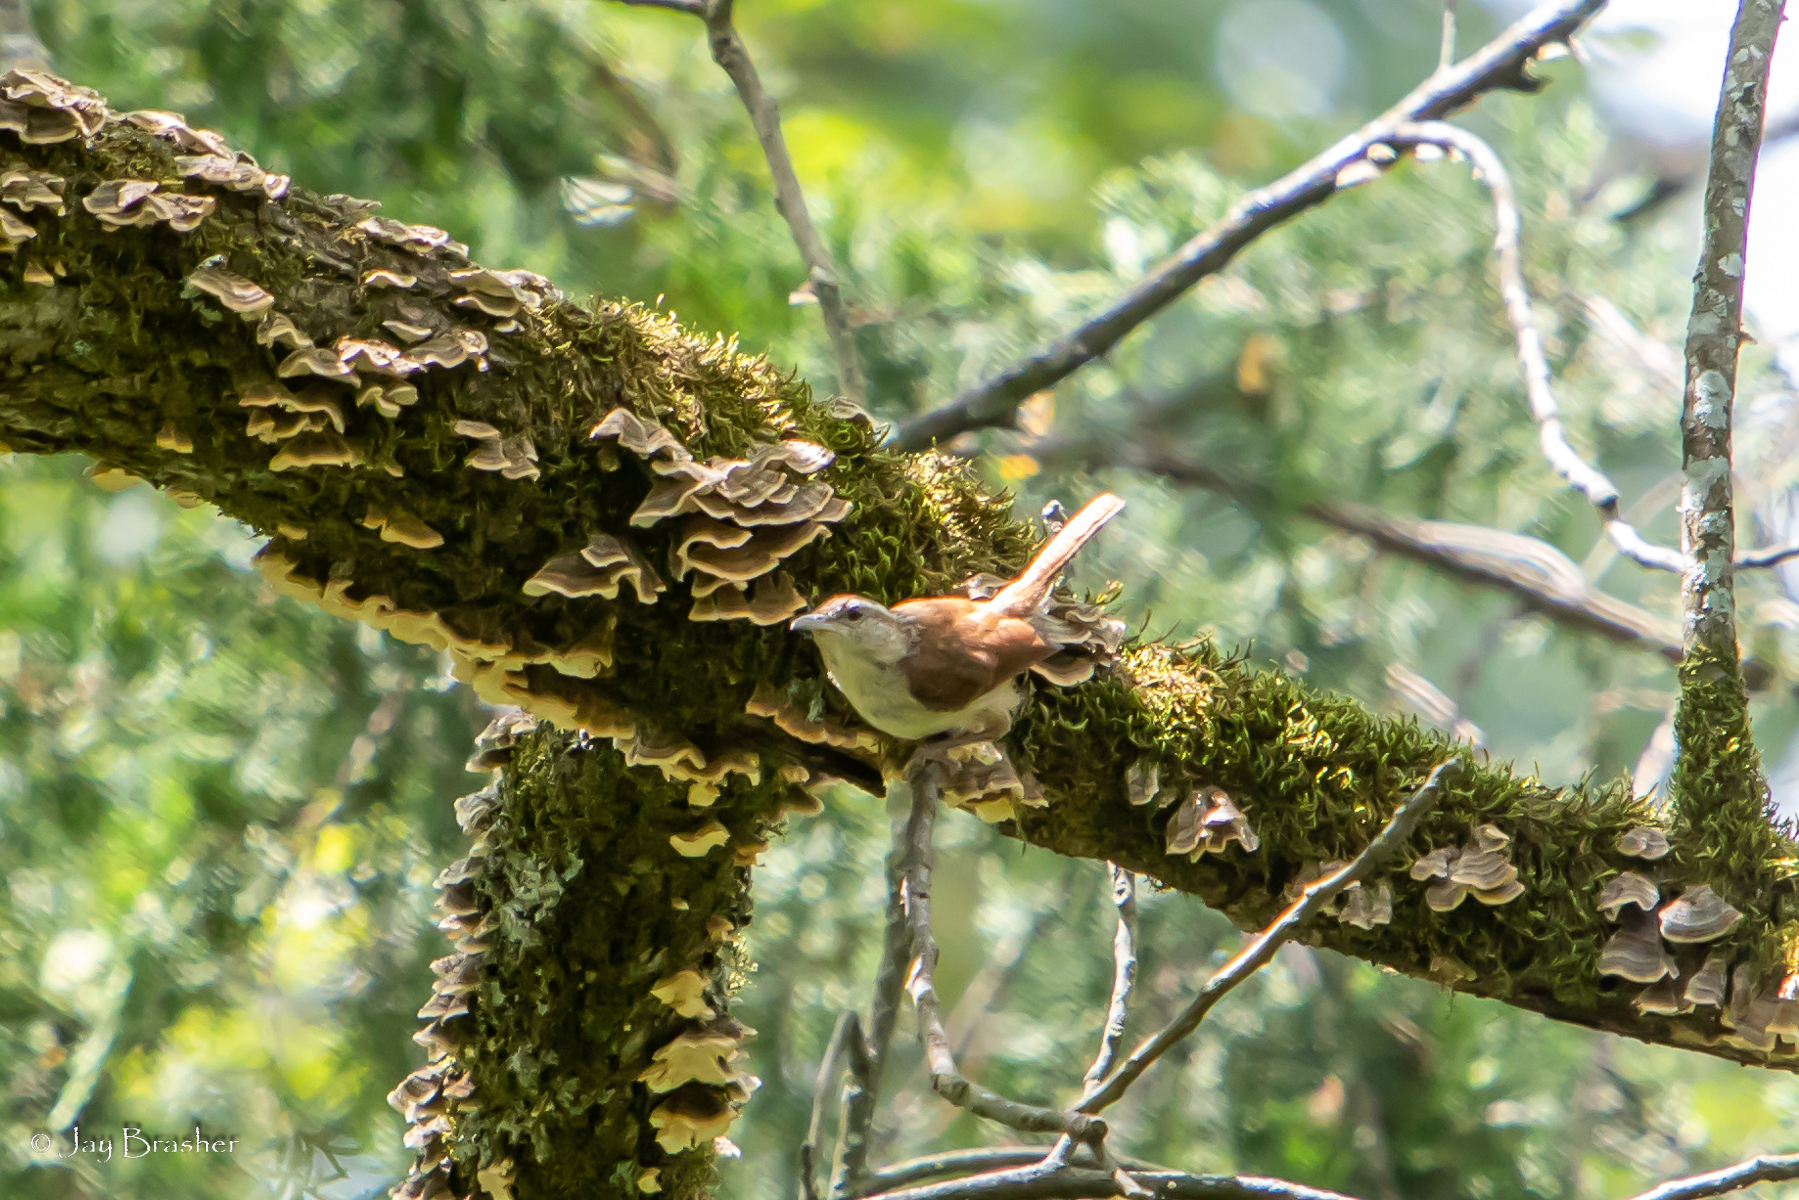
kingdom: Animalia
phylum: Chordata
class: Aves
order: Passeriformes
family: Troglodytidae
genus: Thryothorus
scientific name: Thryothorus ludovicianus
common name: Carolina wren
